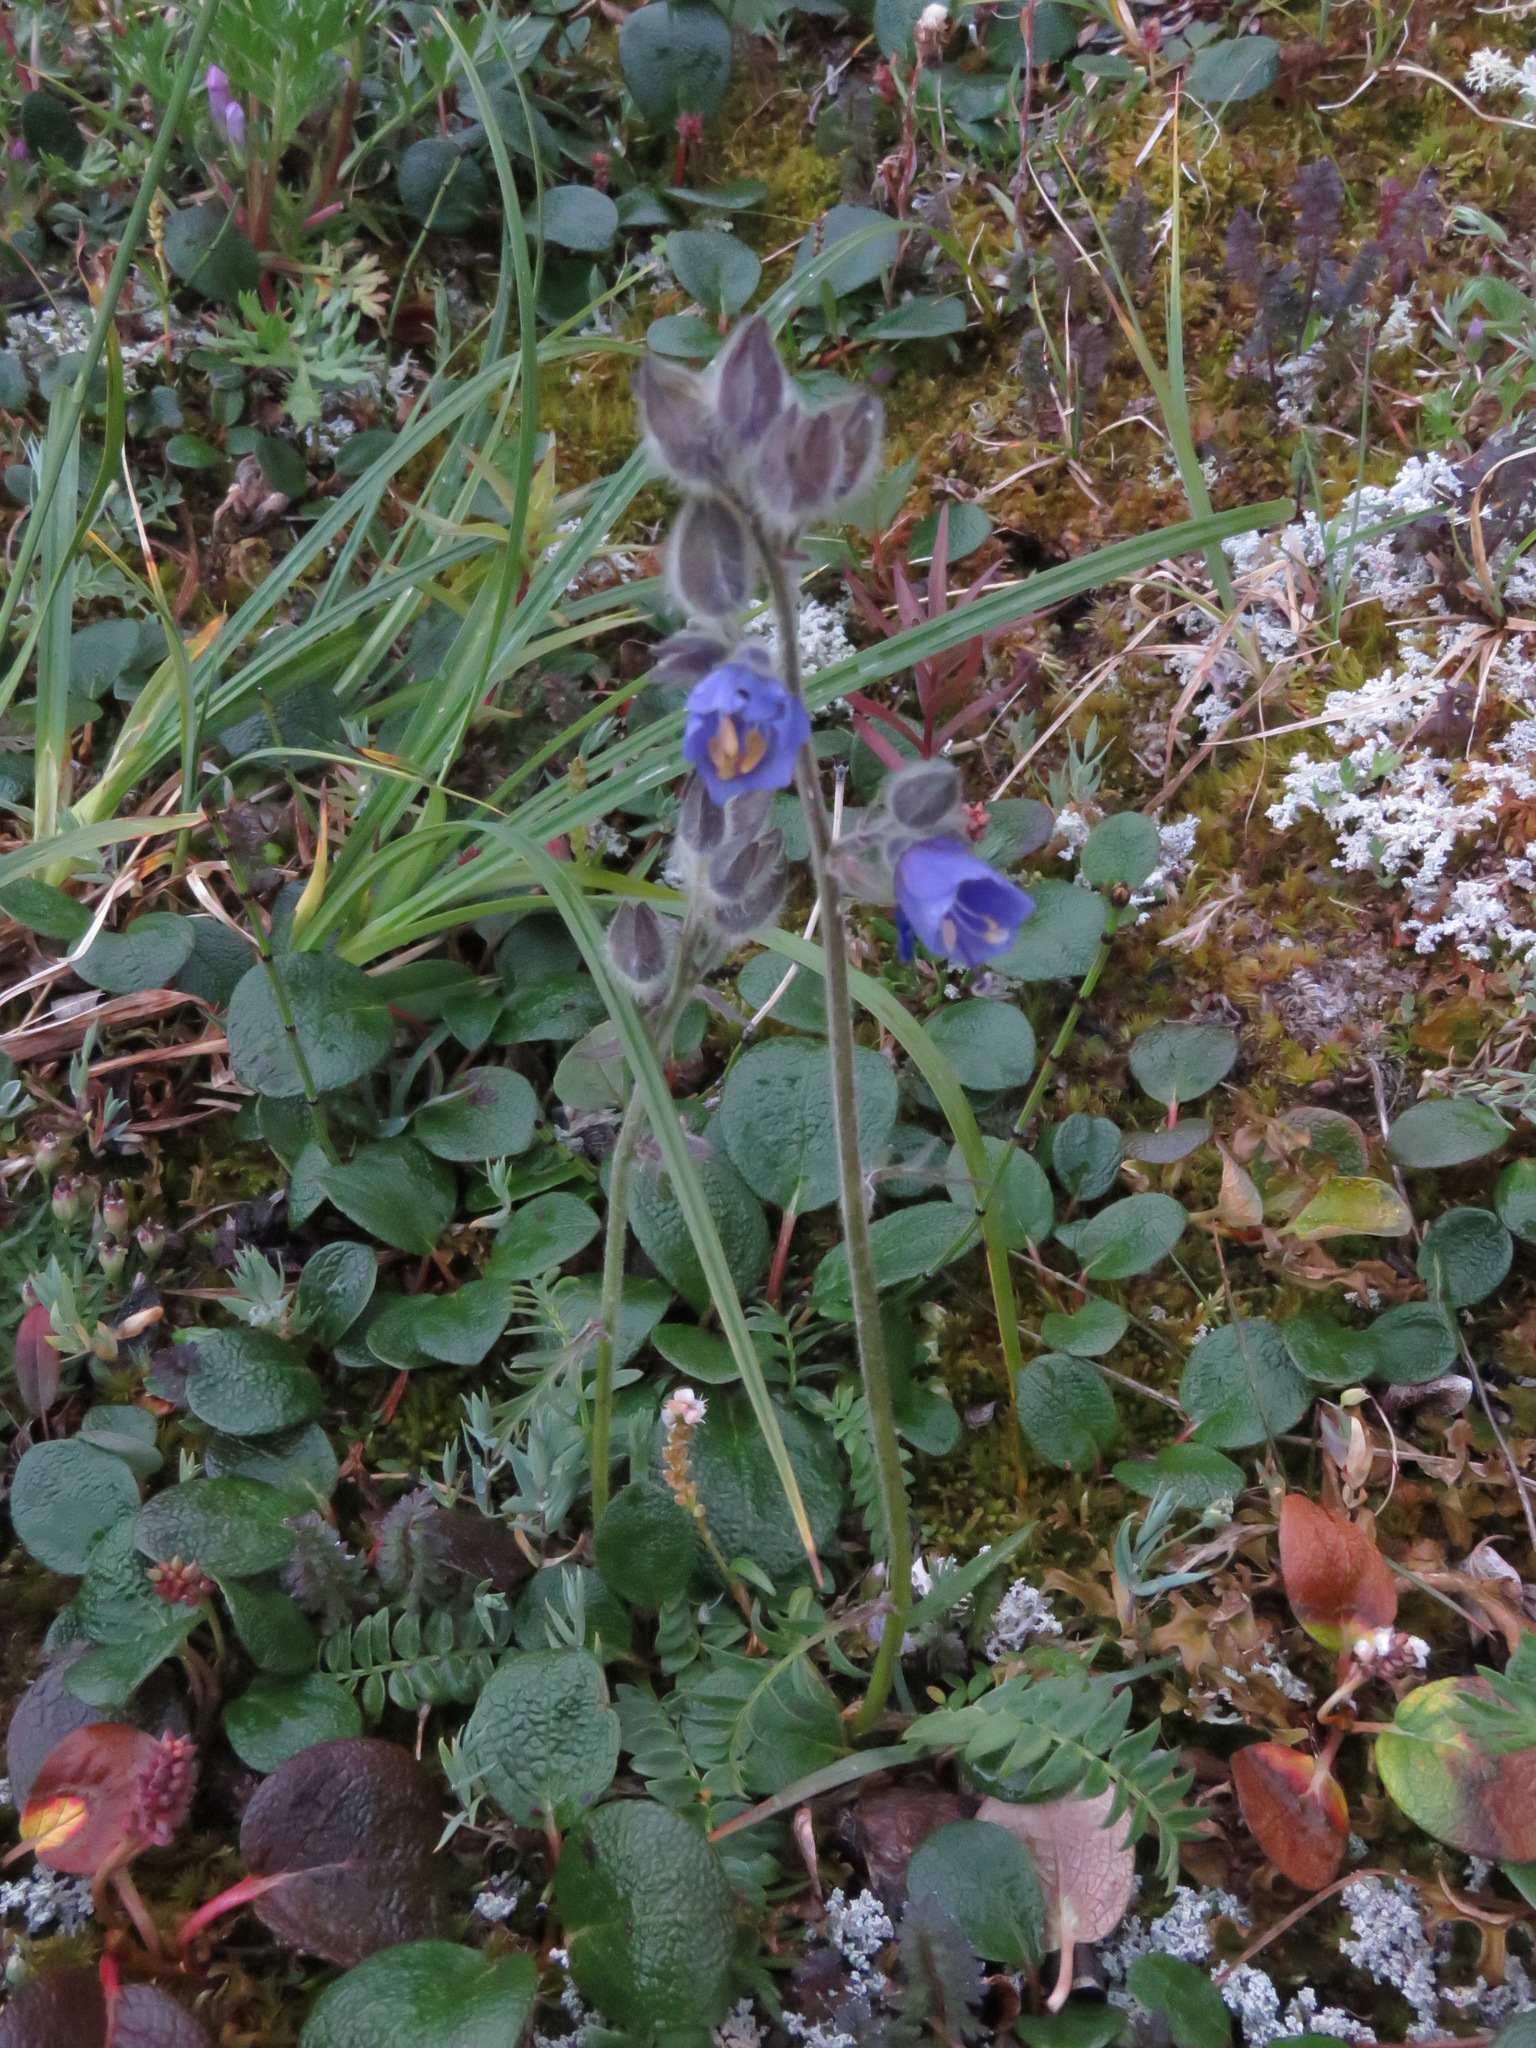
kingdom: Plantae
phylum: Tracheophyta
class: Magnoliopsida
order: Ericales
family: Polemoniaceae
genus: Polemonium
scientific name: Polemonium acutiflorum
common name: Tall jacob's-ladder
